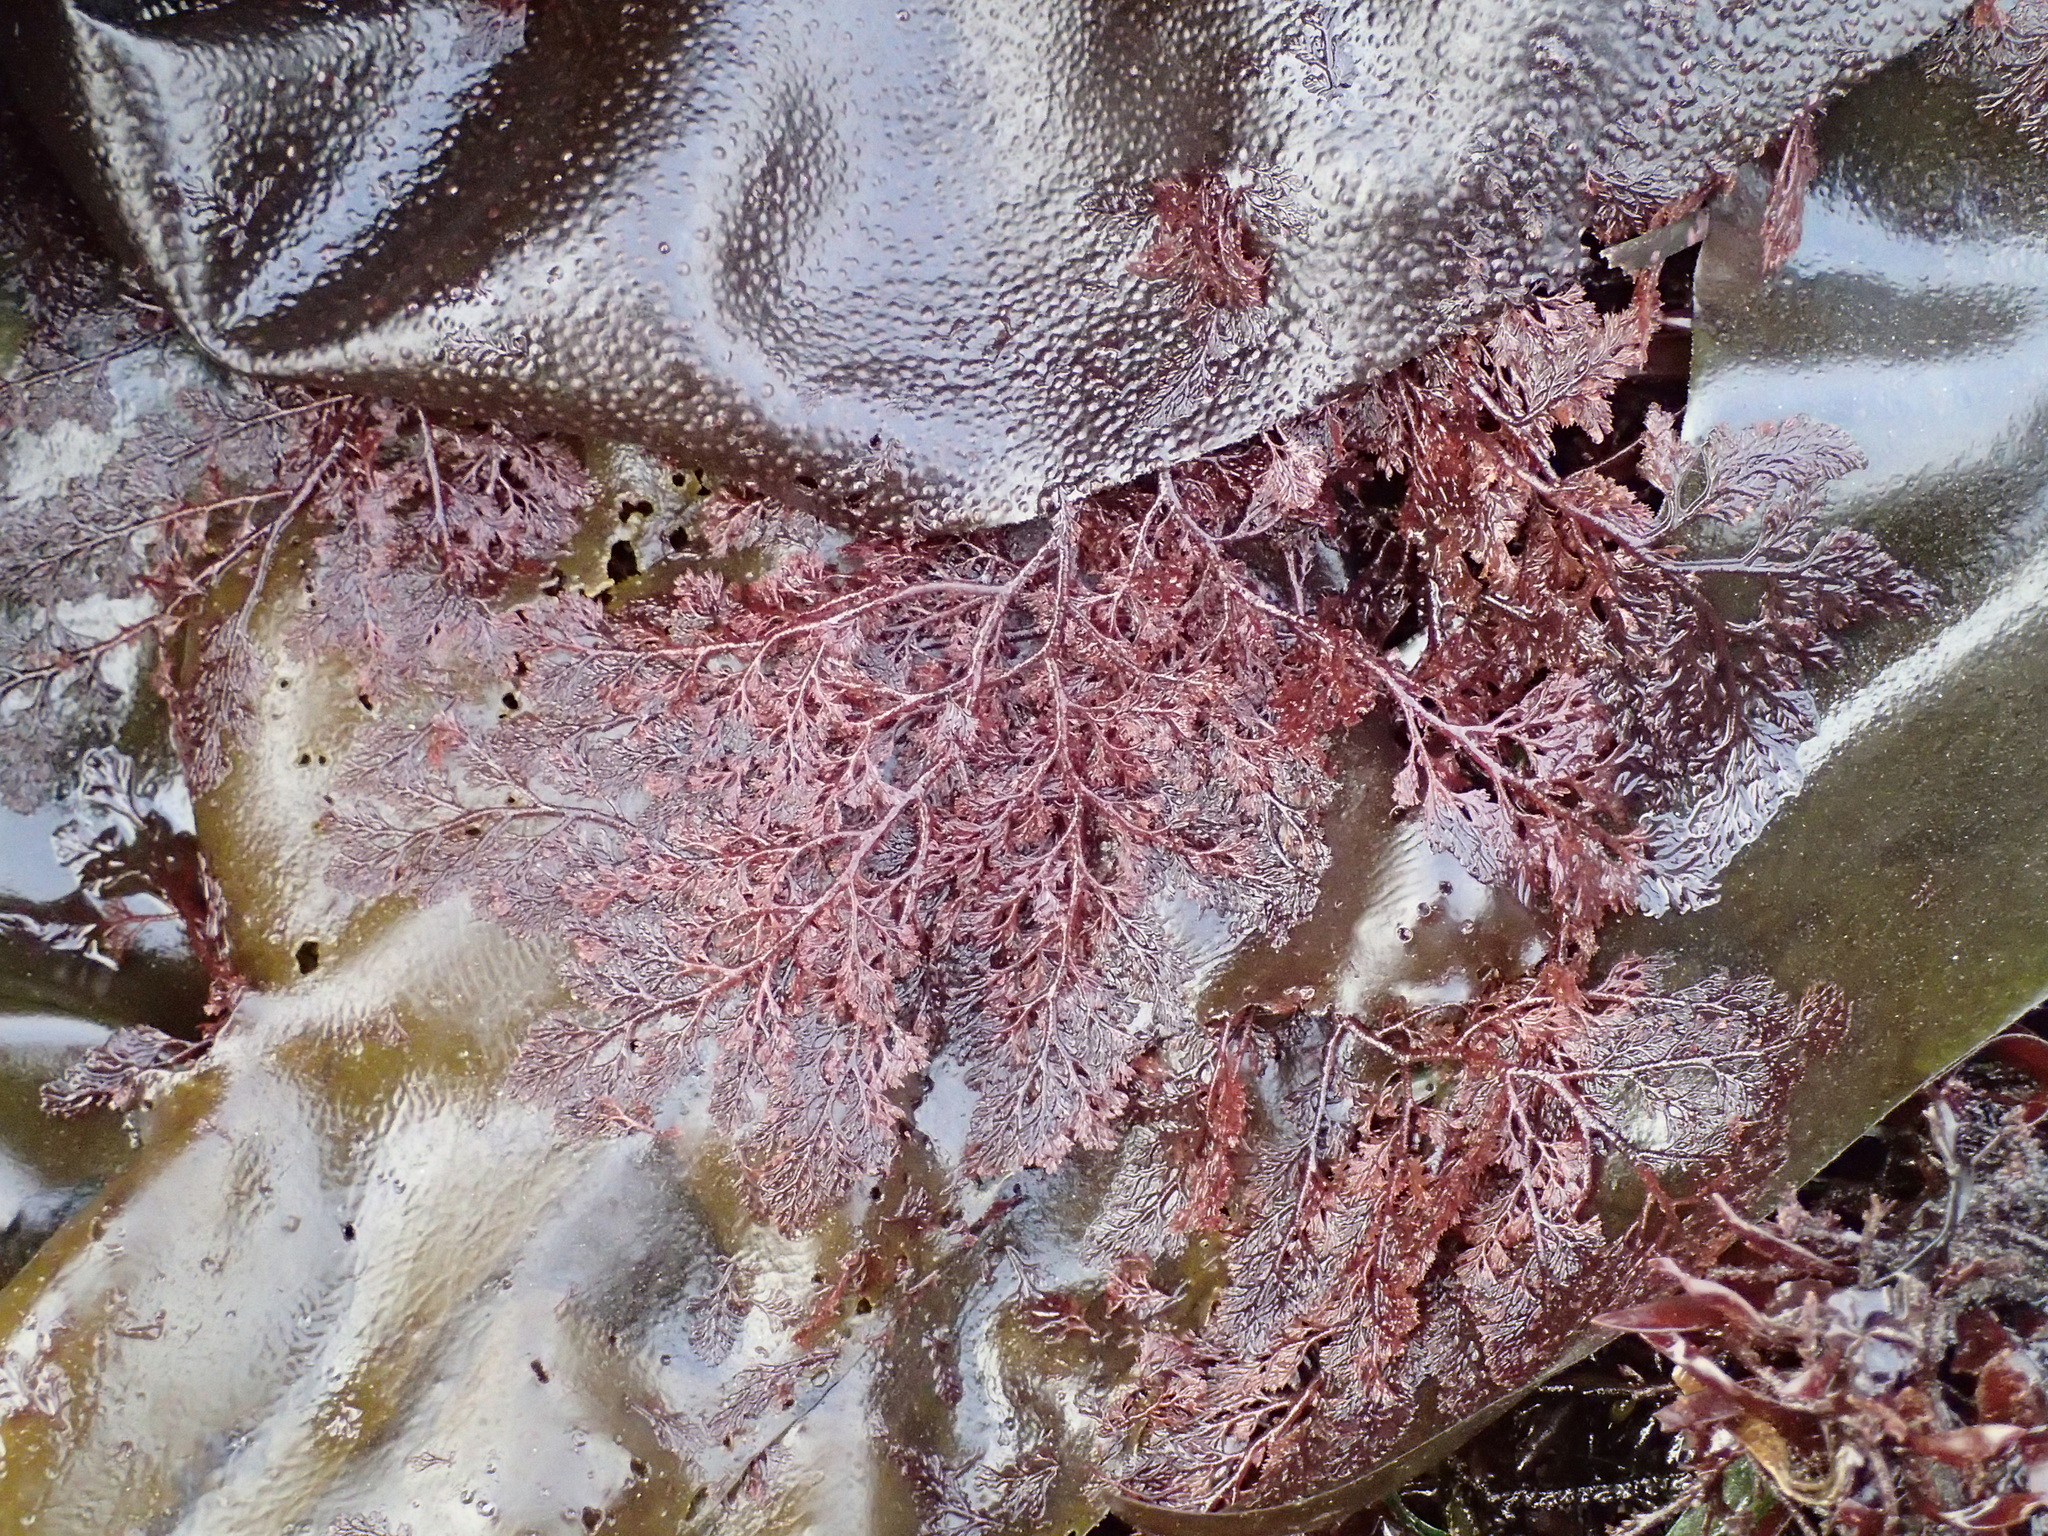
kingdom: Plantae
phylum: Rhodophyta
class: Florideophyceae
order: Ceramiales
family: Ceramiaceae
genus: Microcladia
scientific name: Microcladia coulteri
